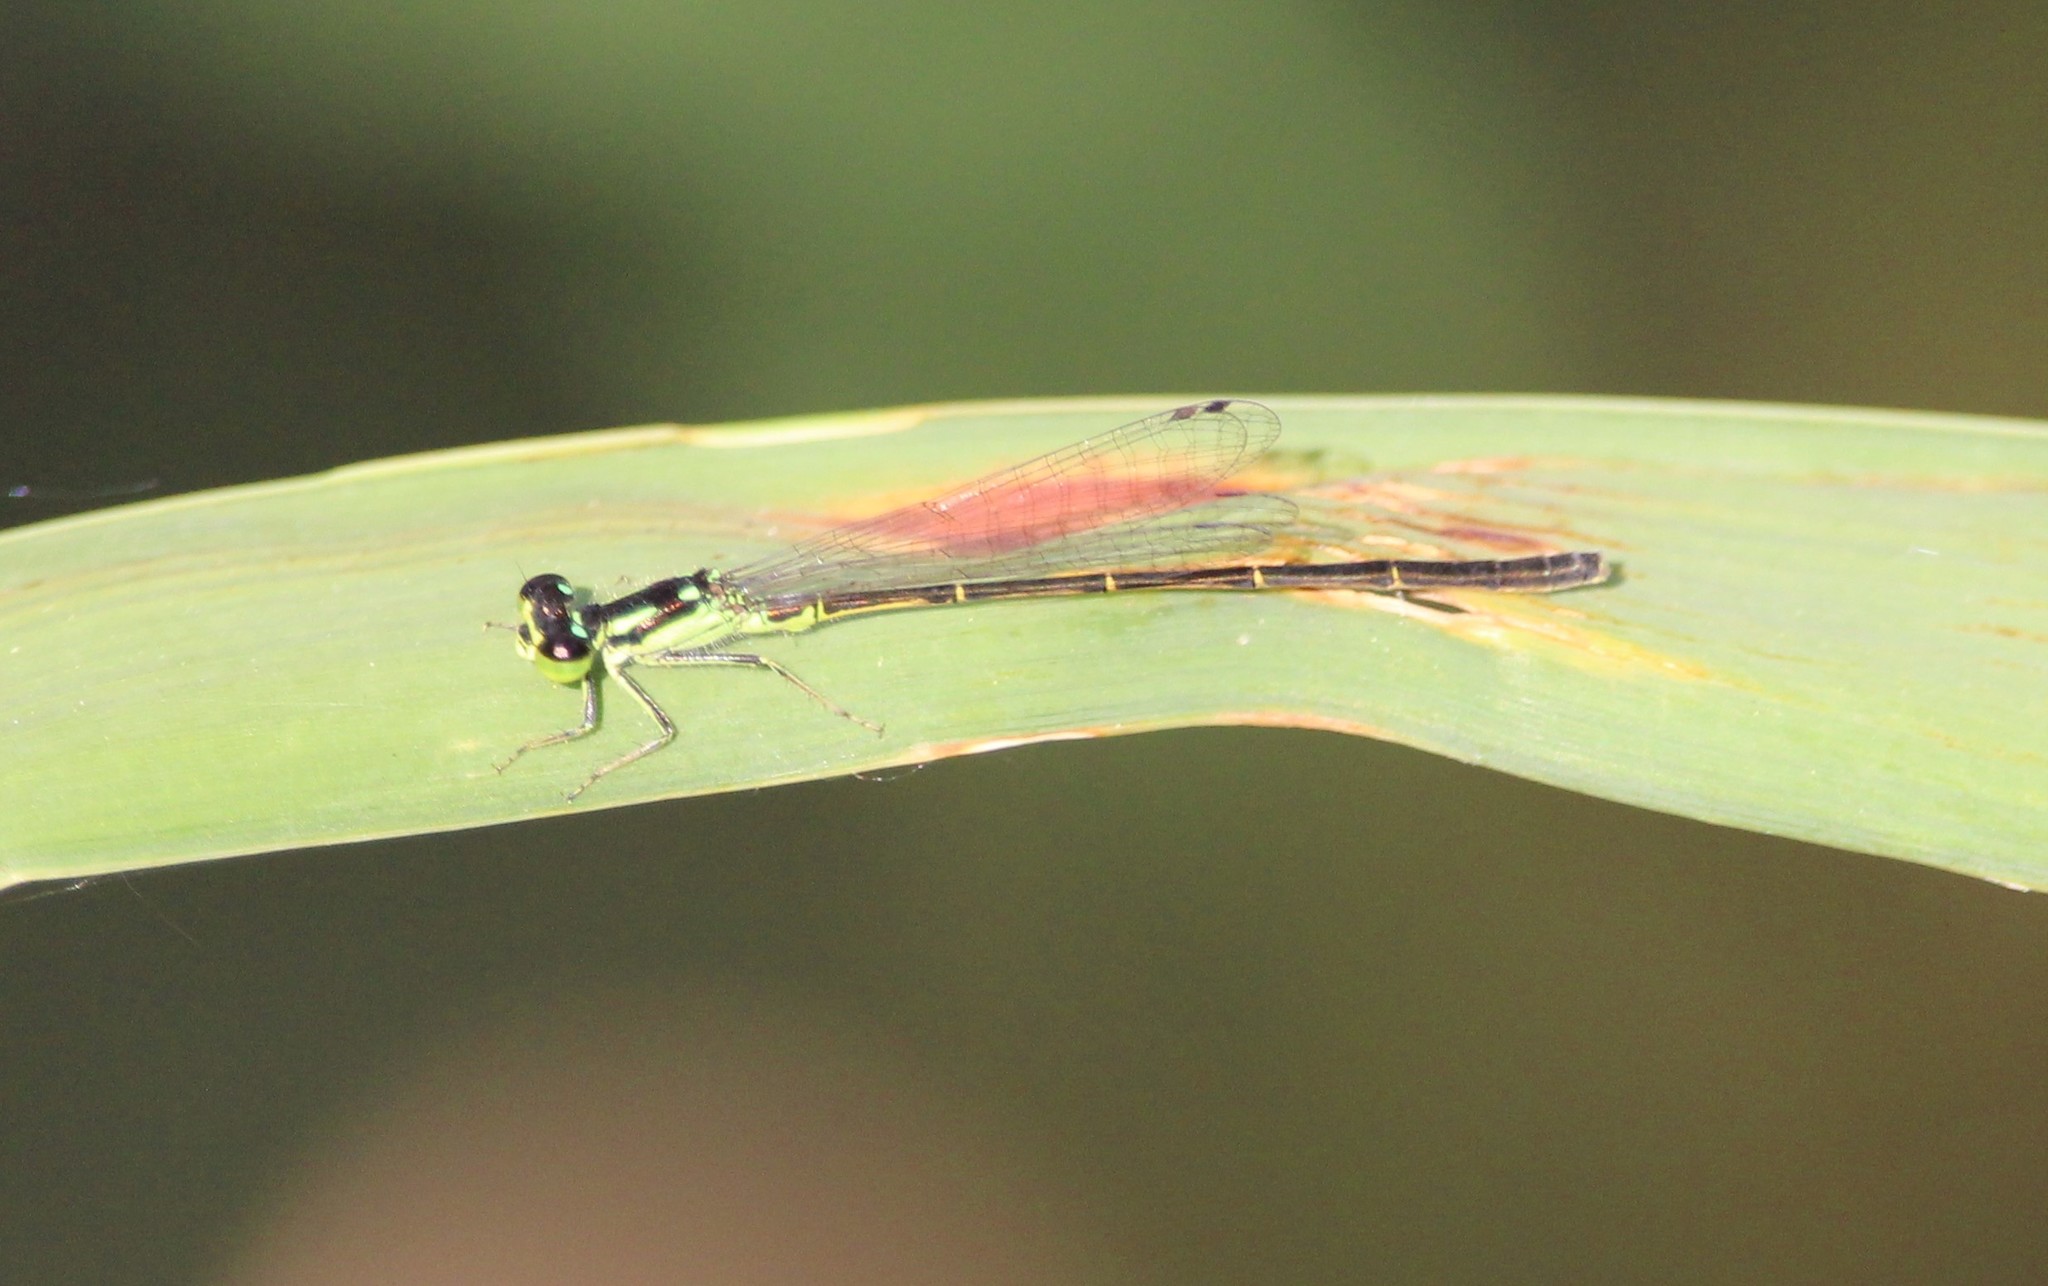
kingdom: Animalia
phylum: Arthropoda
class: Insecta
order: Odonata
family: Coenagrionidae
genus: Ischnura
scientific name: Ischnura posita
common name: Fragile forktail
